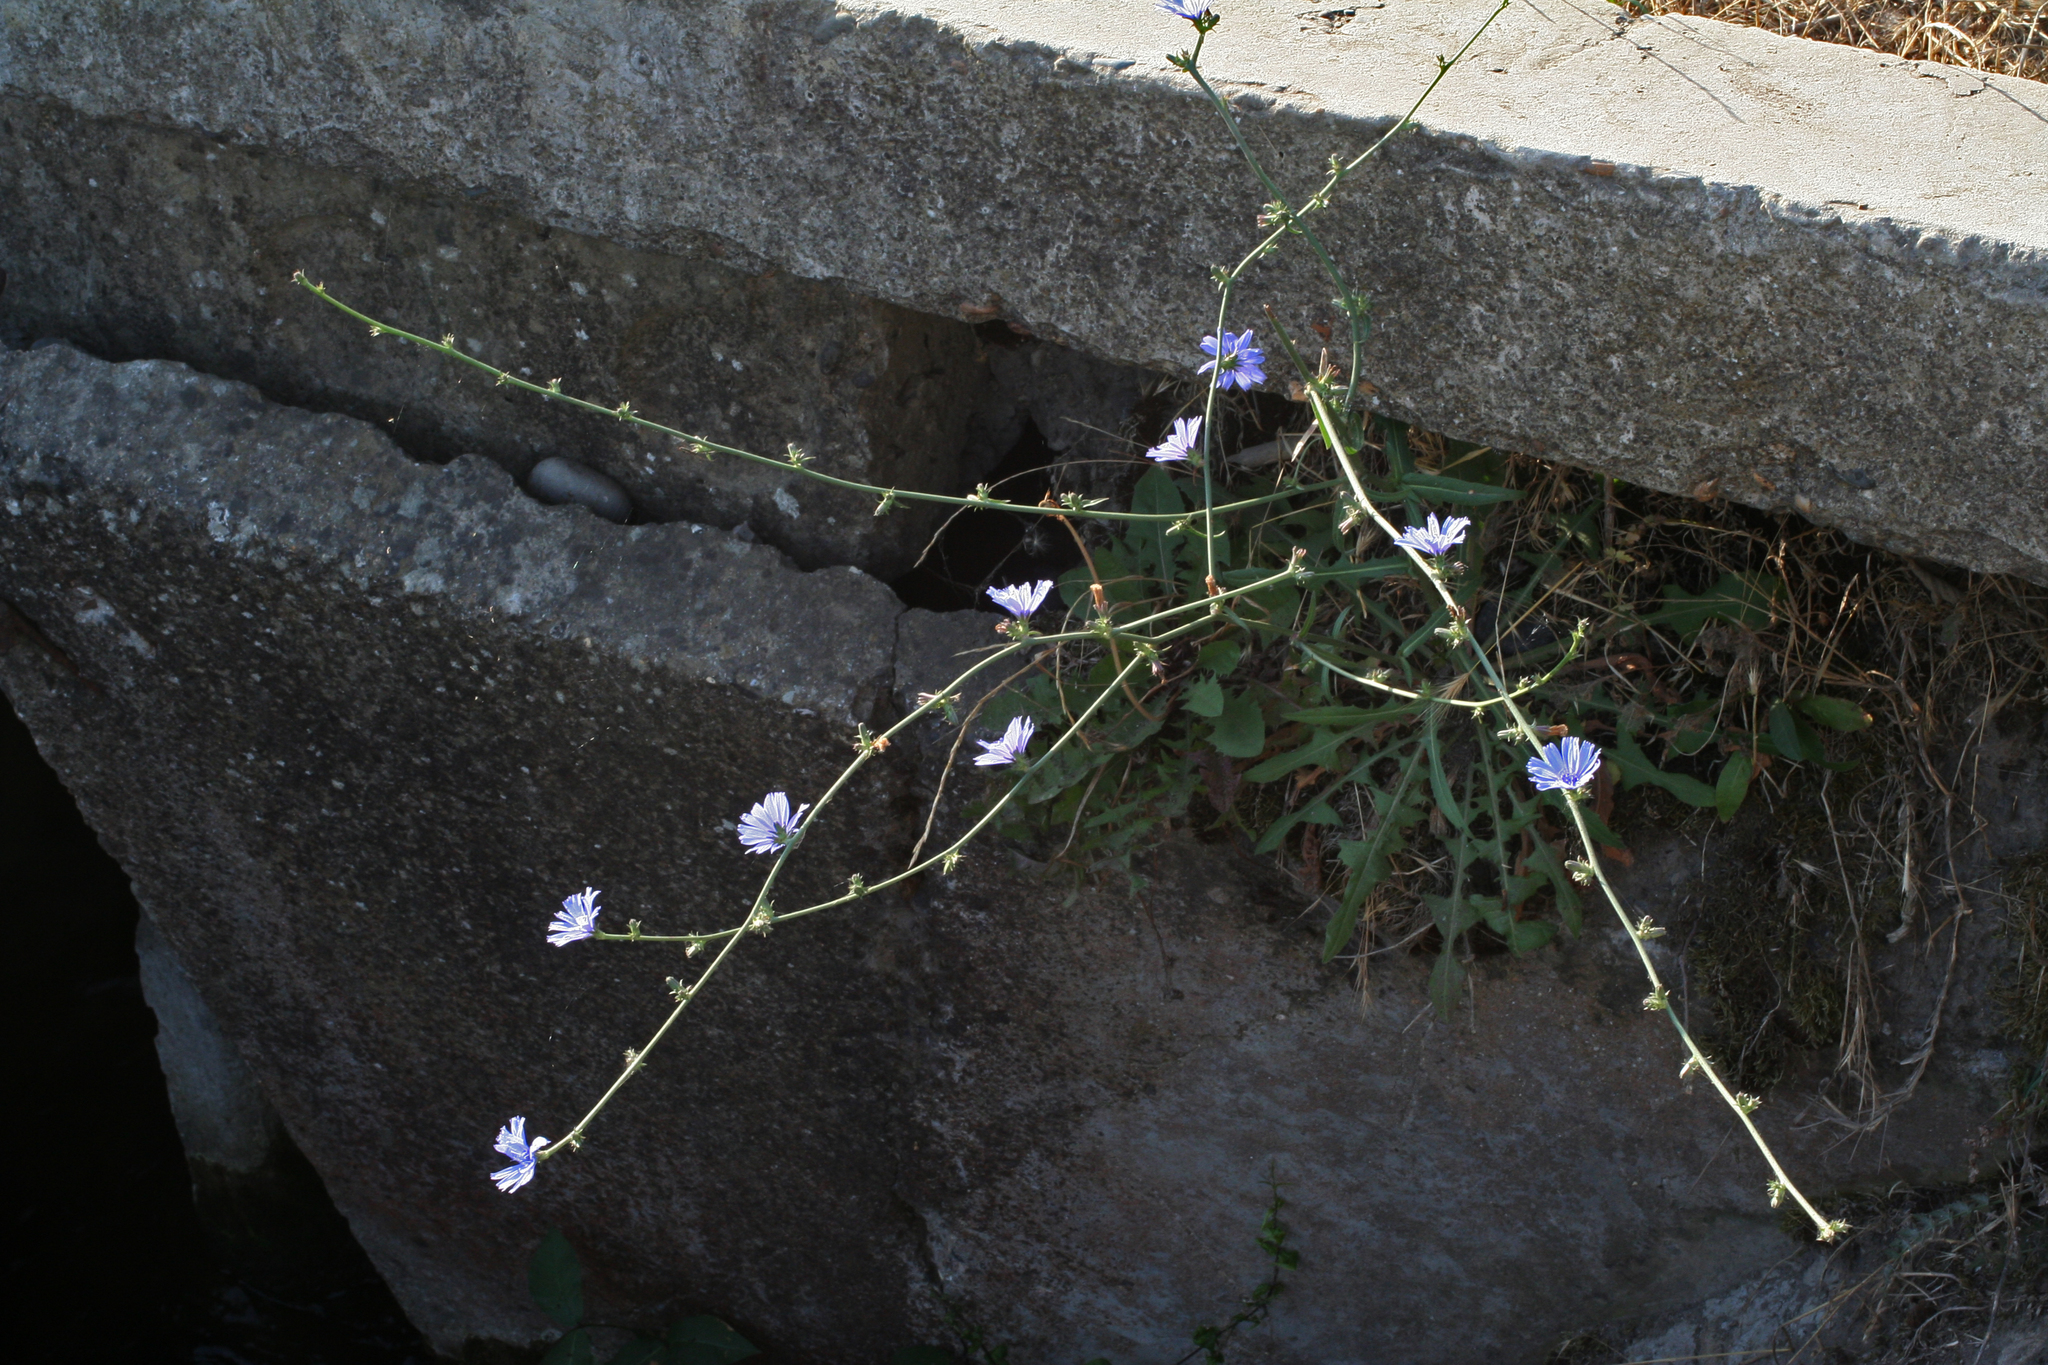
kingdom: Plantae
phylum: Tracheophyta
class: Magnoliopsida
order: Asterales
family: Asteraceae
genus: Cichorium
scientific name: Cichorium intybus
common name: Chicory
